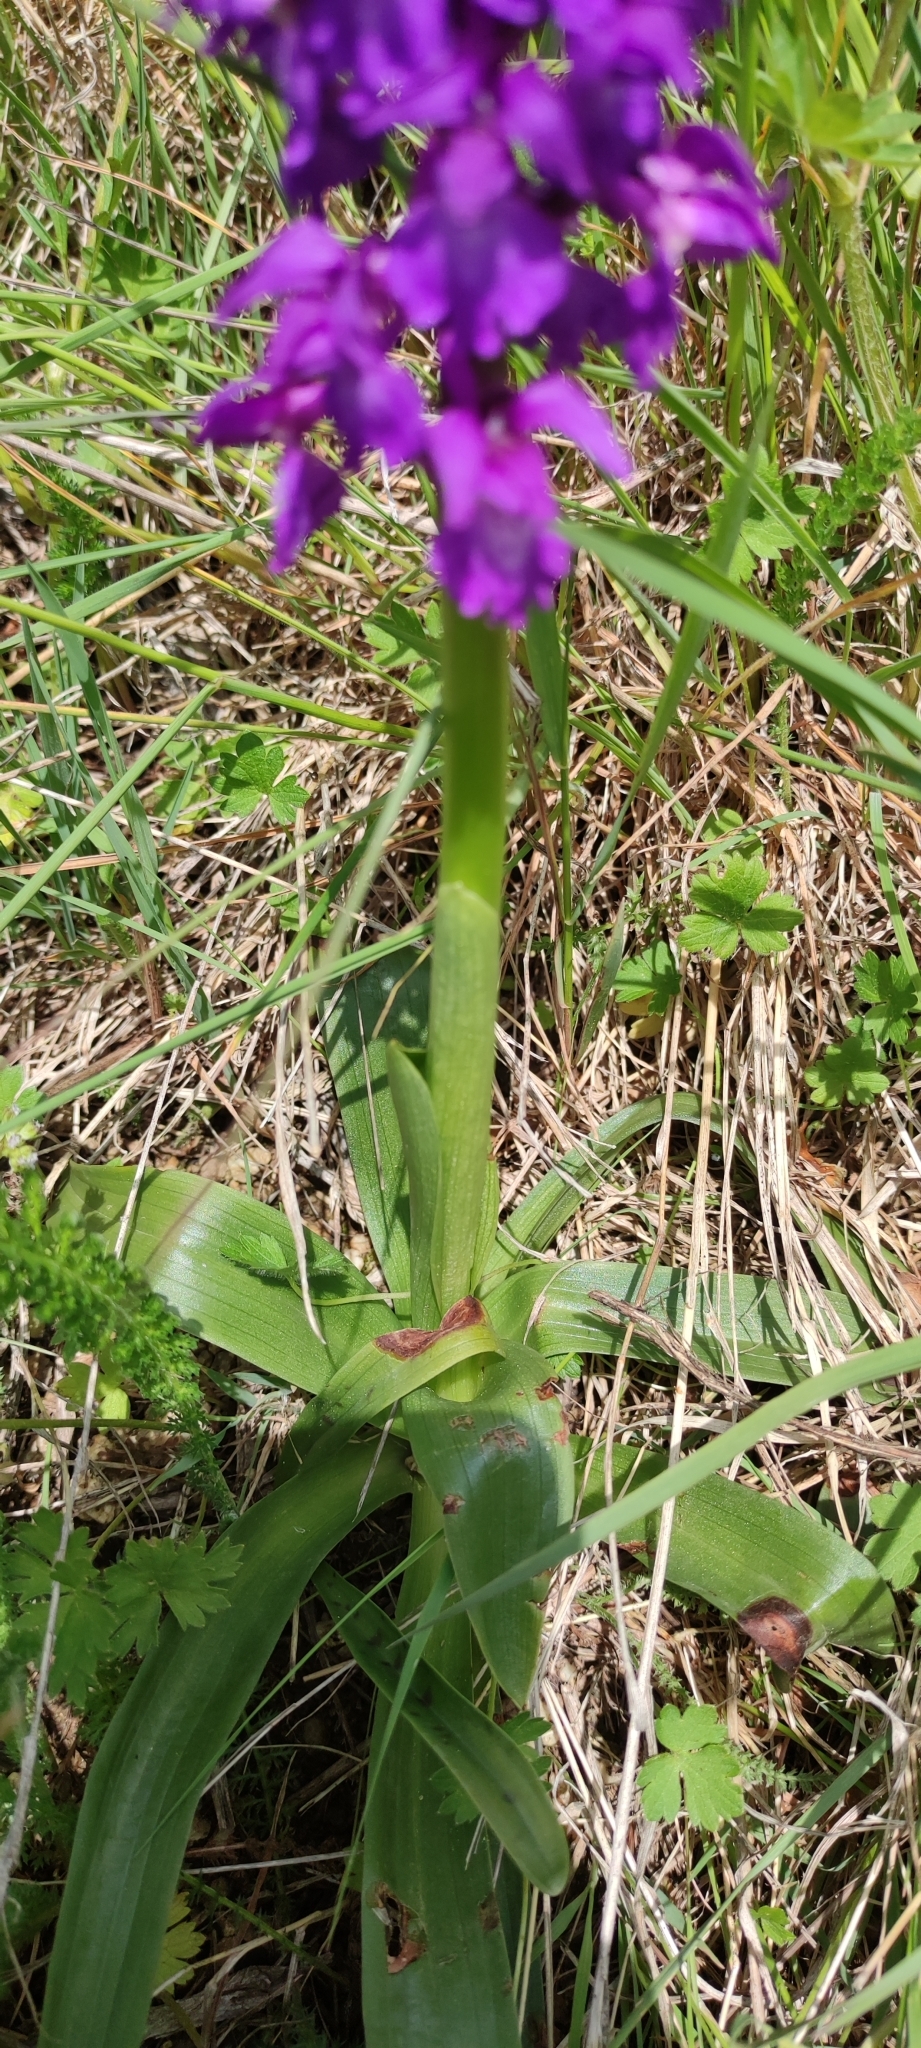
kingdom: Plantae
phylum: Tracheophyta
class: Liliopsida
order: Asparagales
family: Orchidaceae
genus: Orchis
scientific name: Orchis mascula
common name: Early-purple orchid
